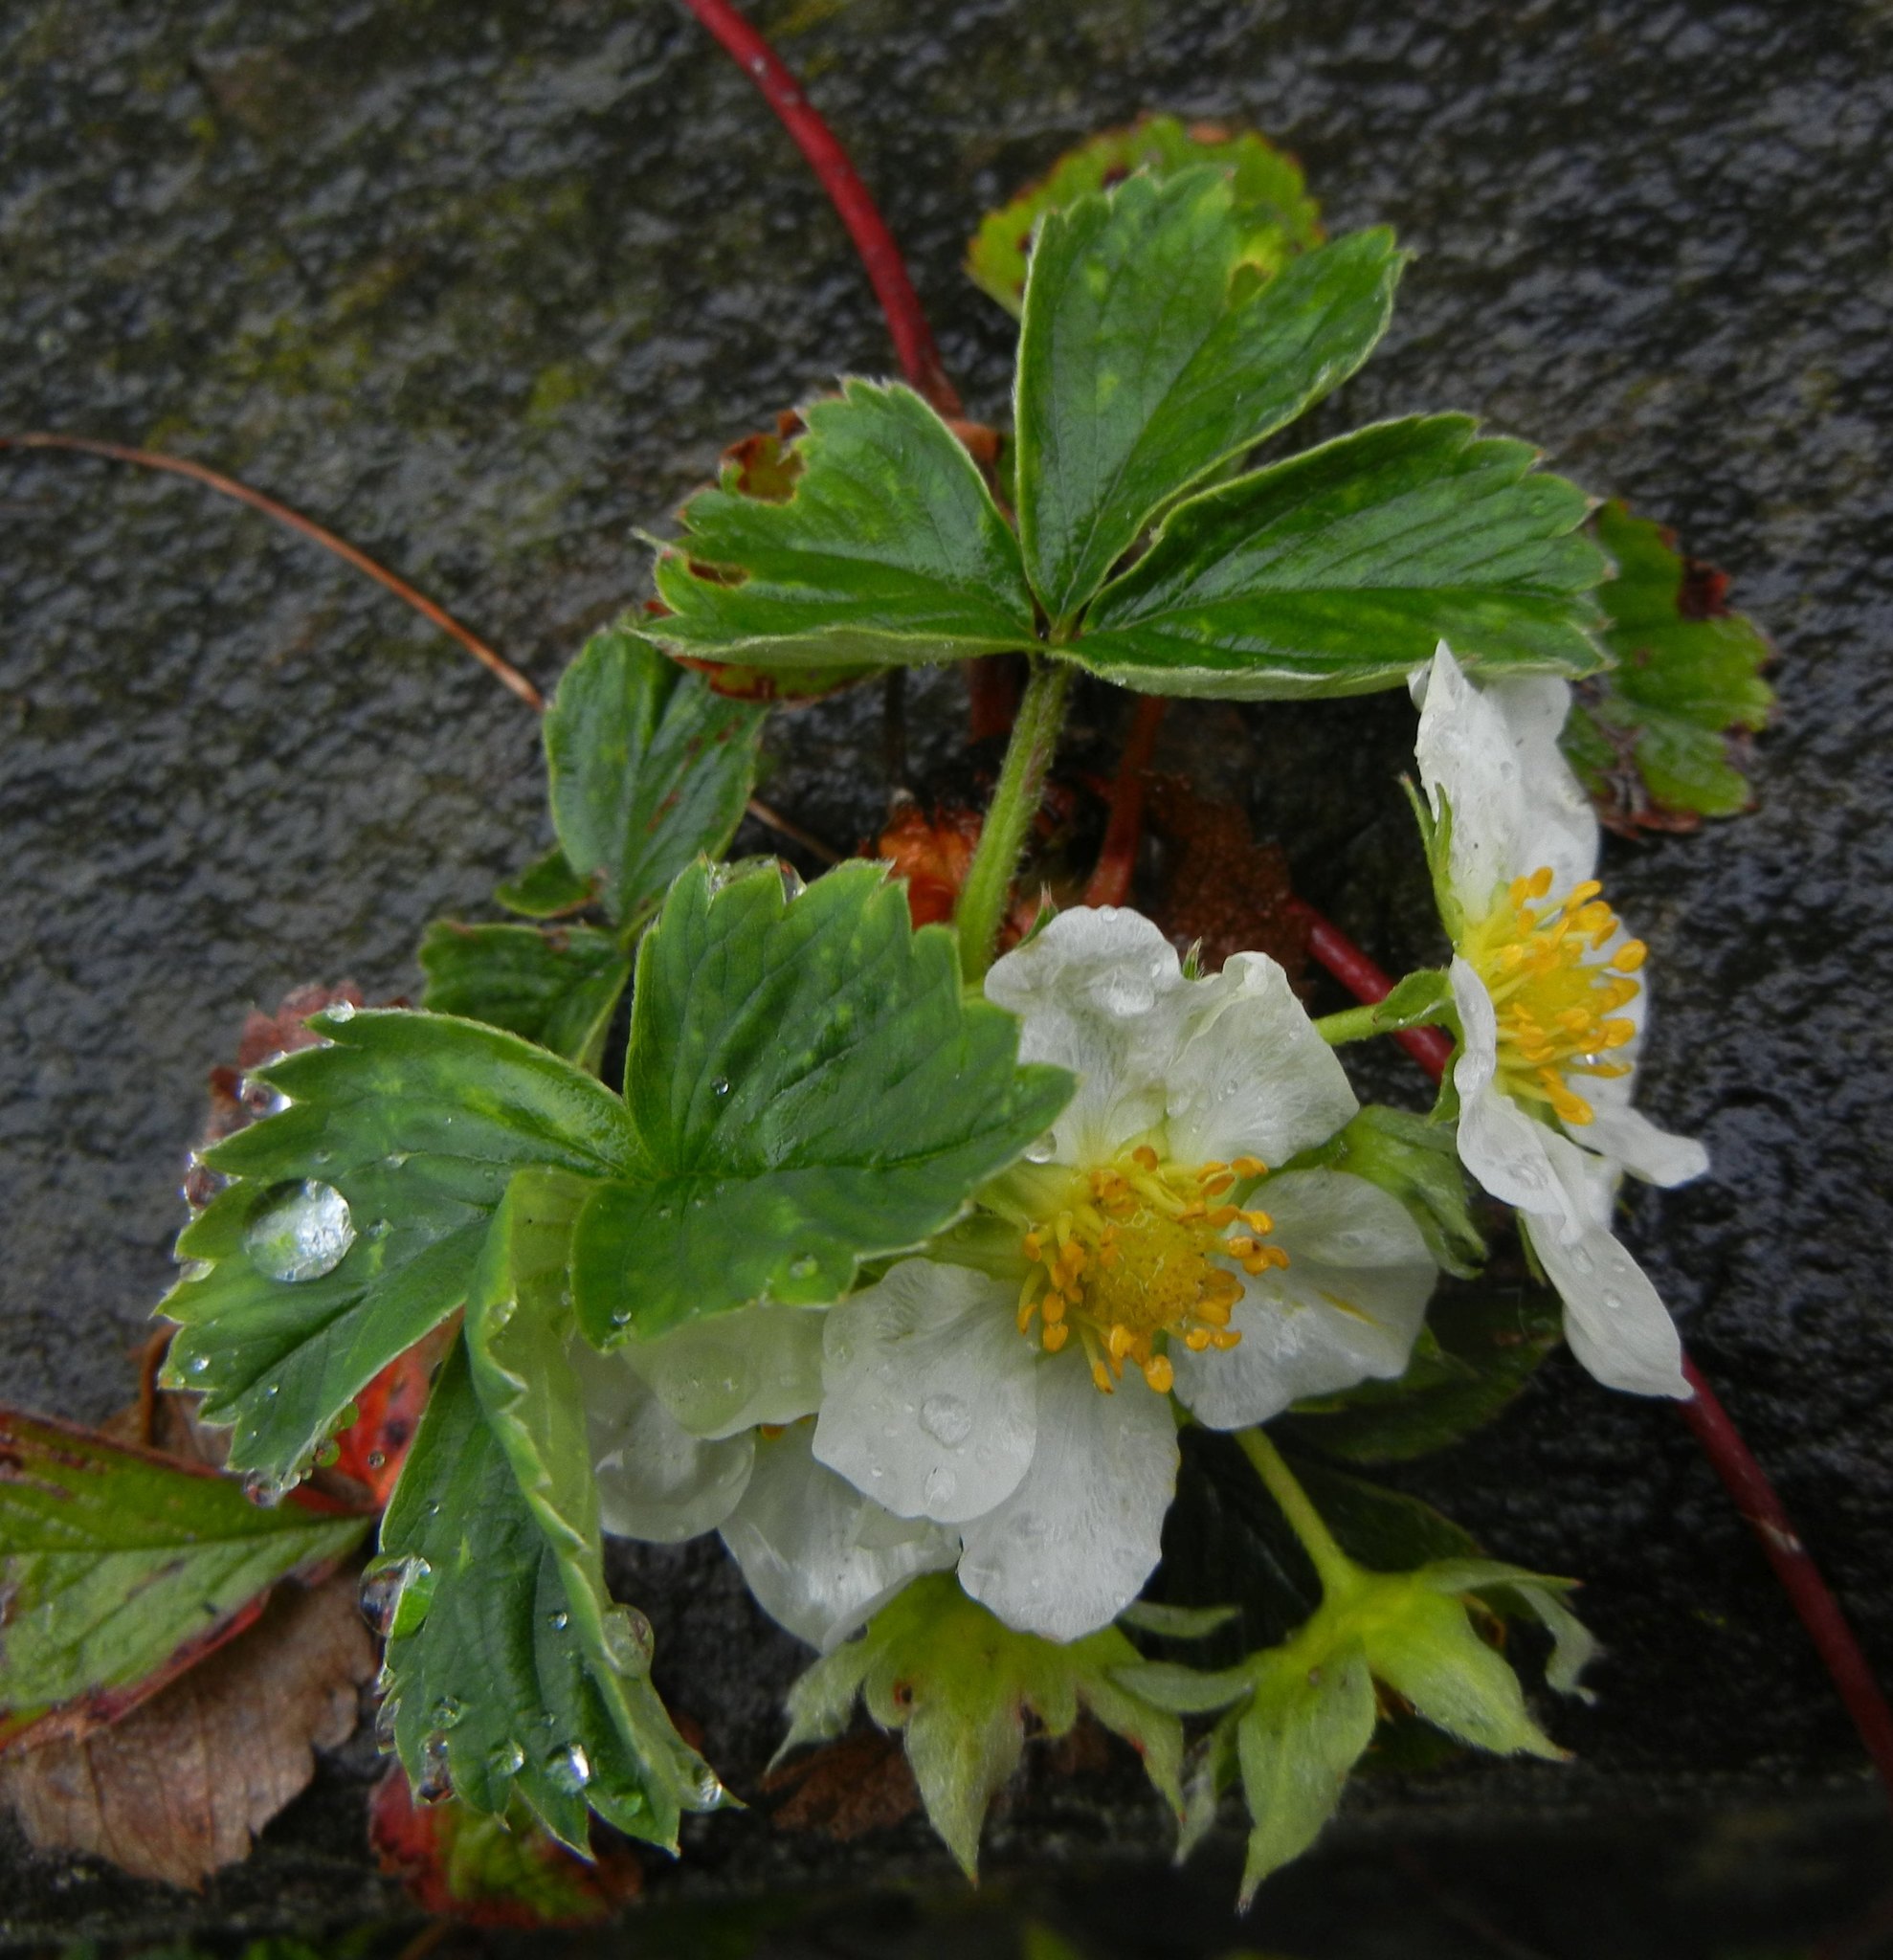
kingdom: Plantae
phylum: Tracheophyta
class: Magnoliopsida
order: Rosales
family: Rosaceae
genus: Fragaria
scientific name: Fragaria vesca
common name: Wild strawberry
